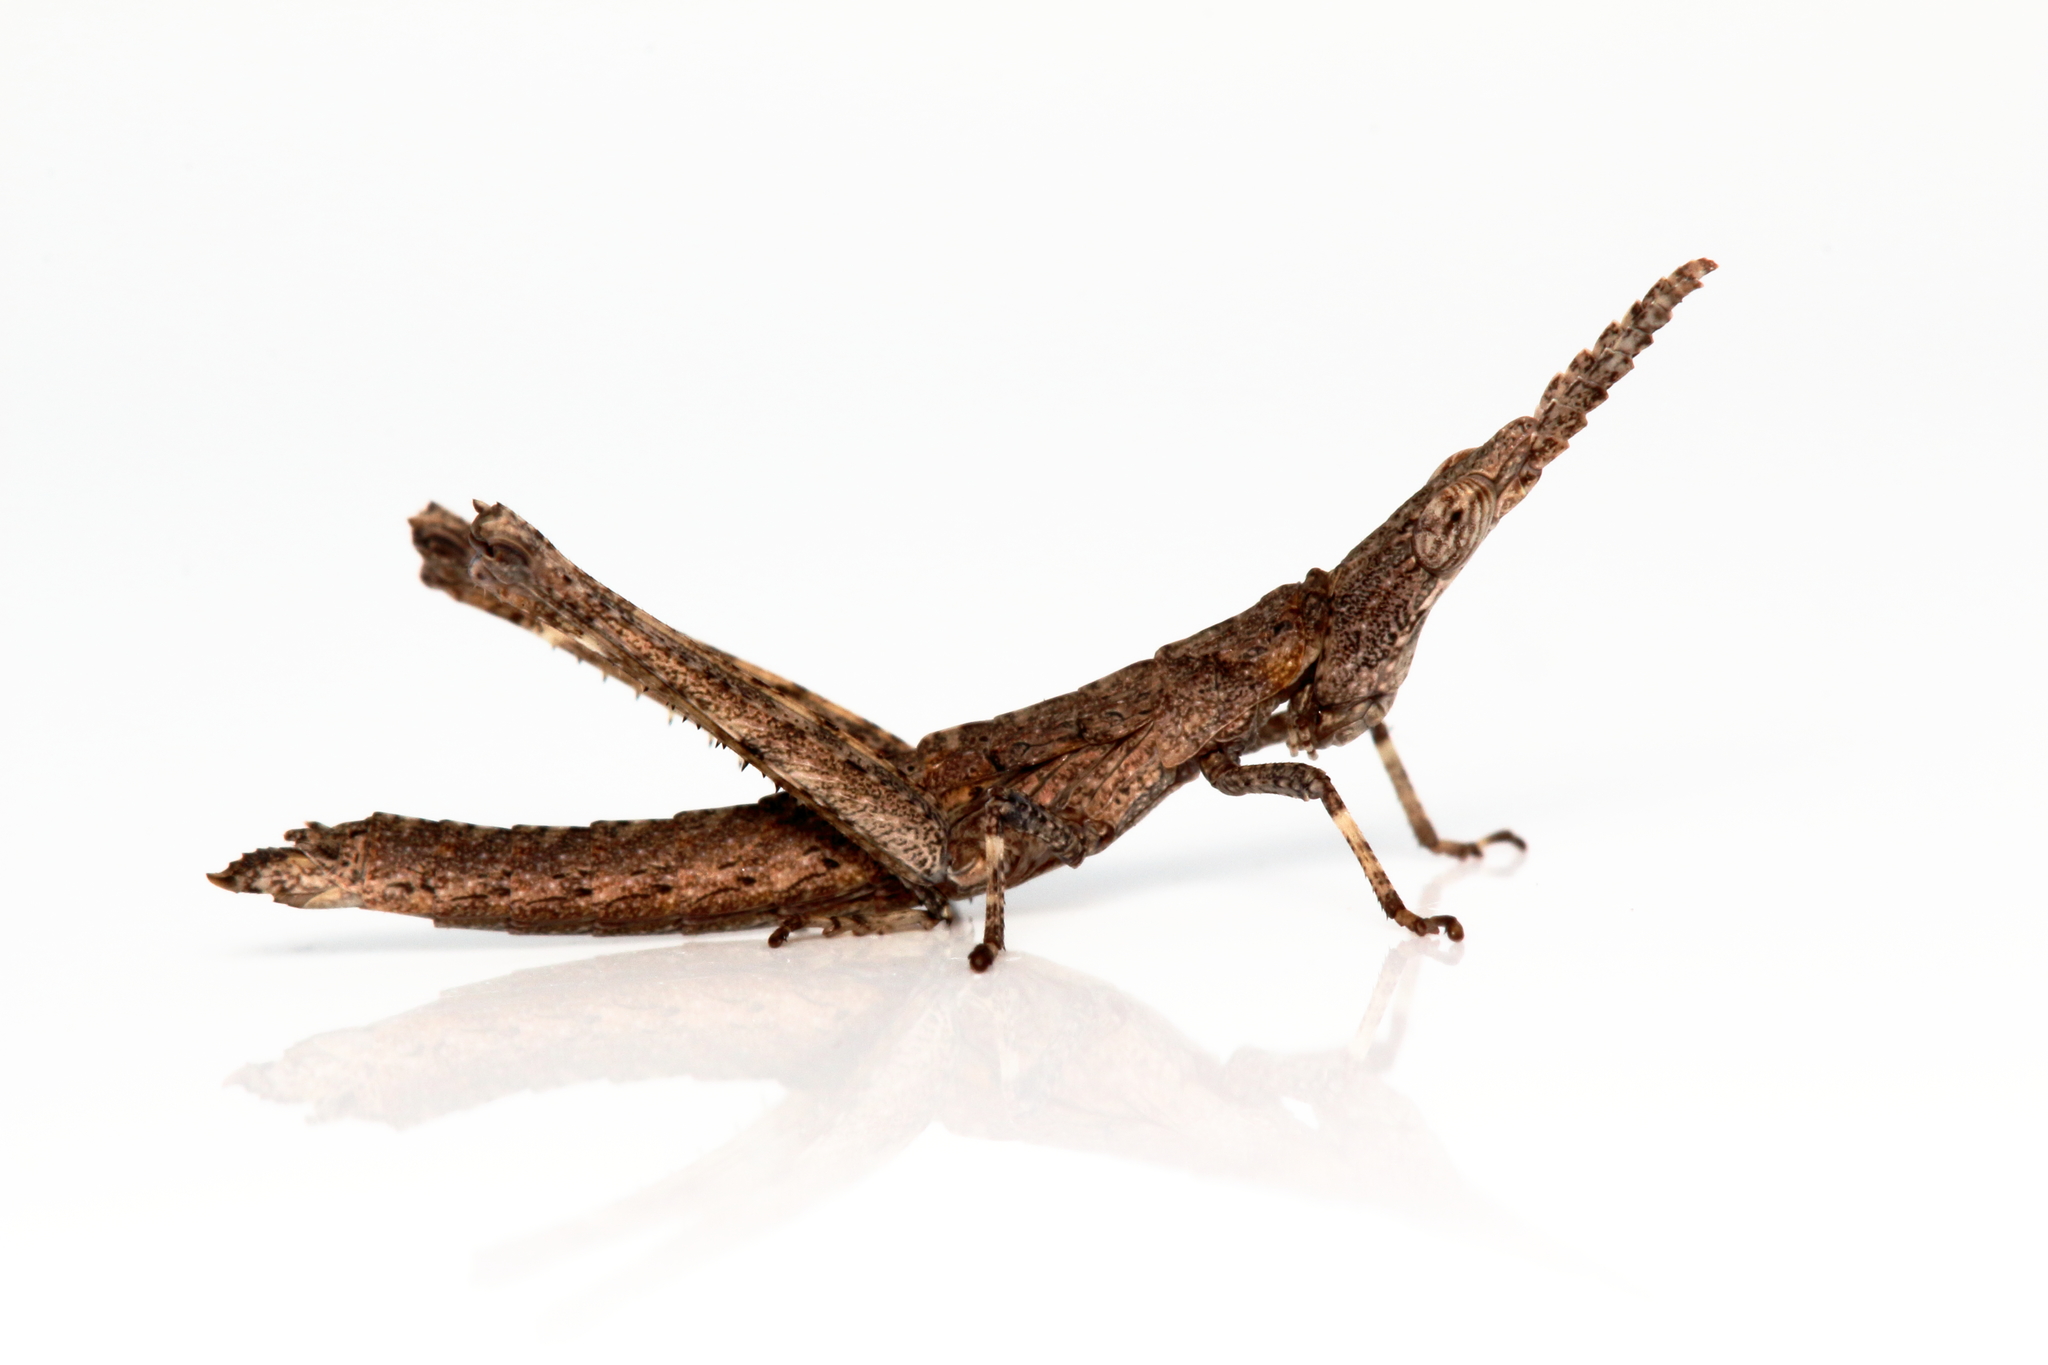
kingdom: Animalia
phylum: Arthropoda
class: Insecta
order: Orthoptera
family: Morabidae
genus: Vandiemenella
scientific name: Vandiemenella viatica
